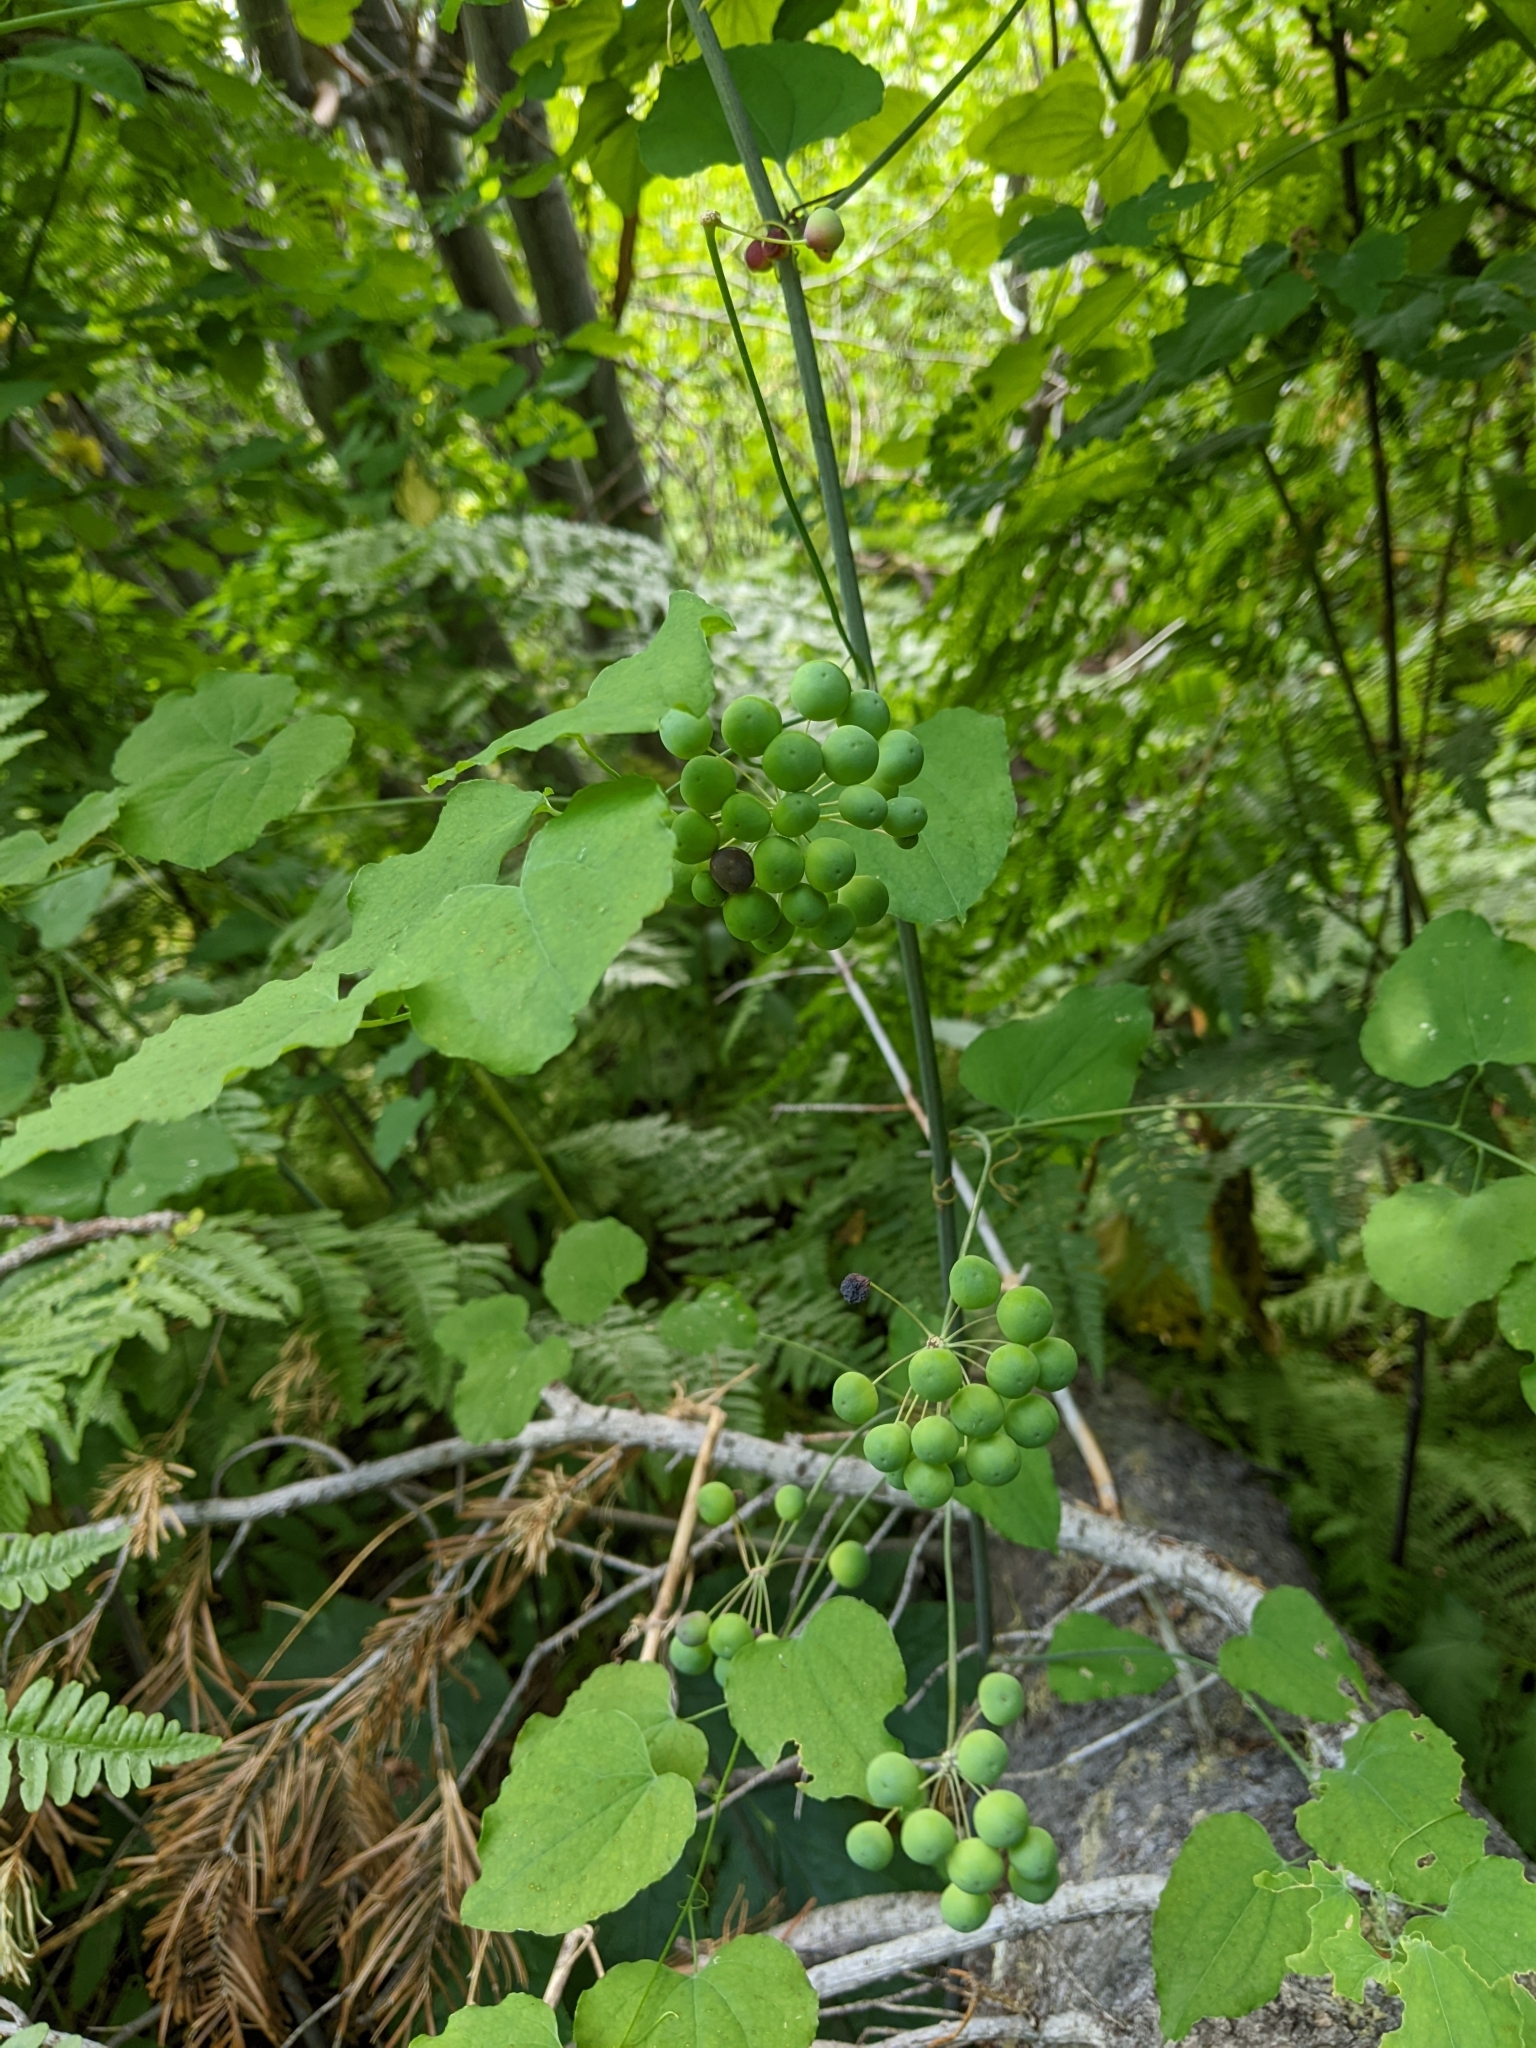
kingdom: Plantae
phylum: Tracheophyta
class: Liliopsida
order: Liliales
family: Smilacaceae
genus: Smilax
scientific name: Smilax jamesii
